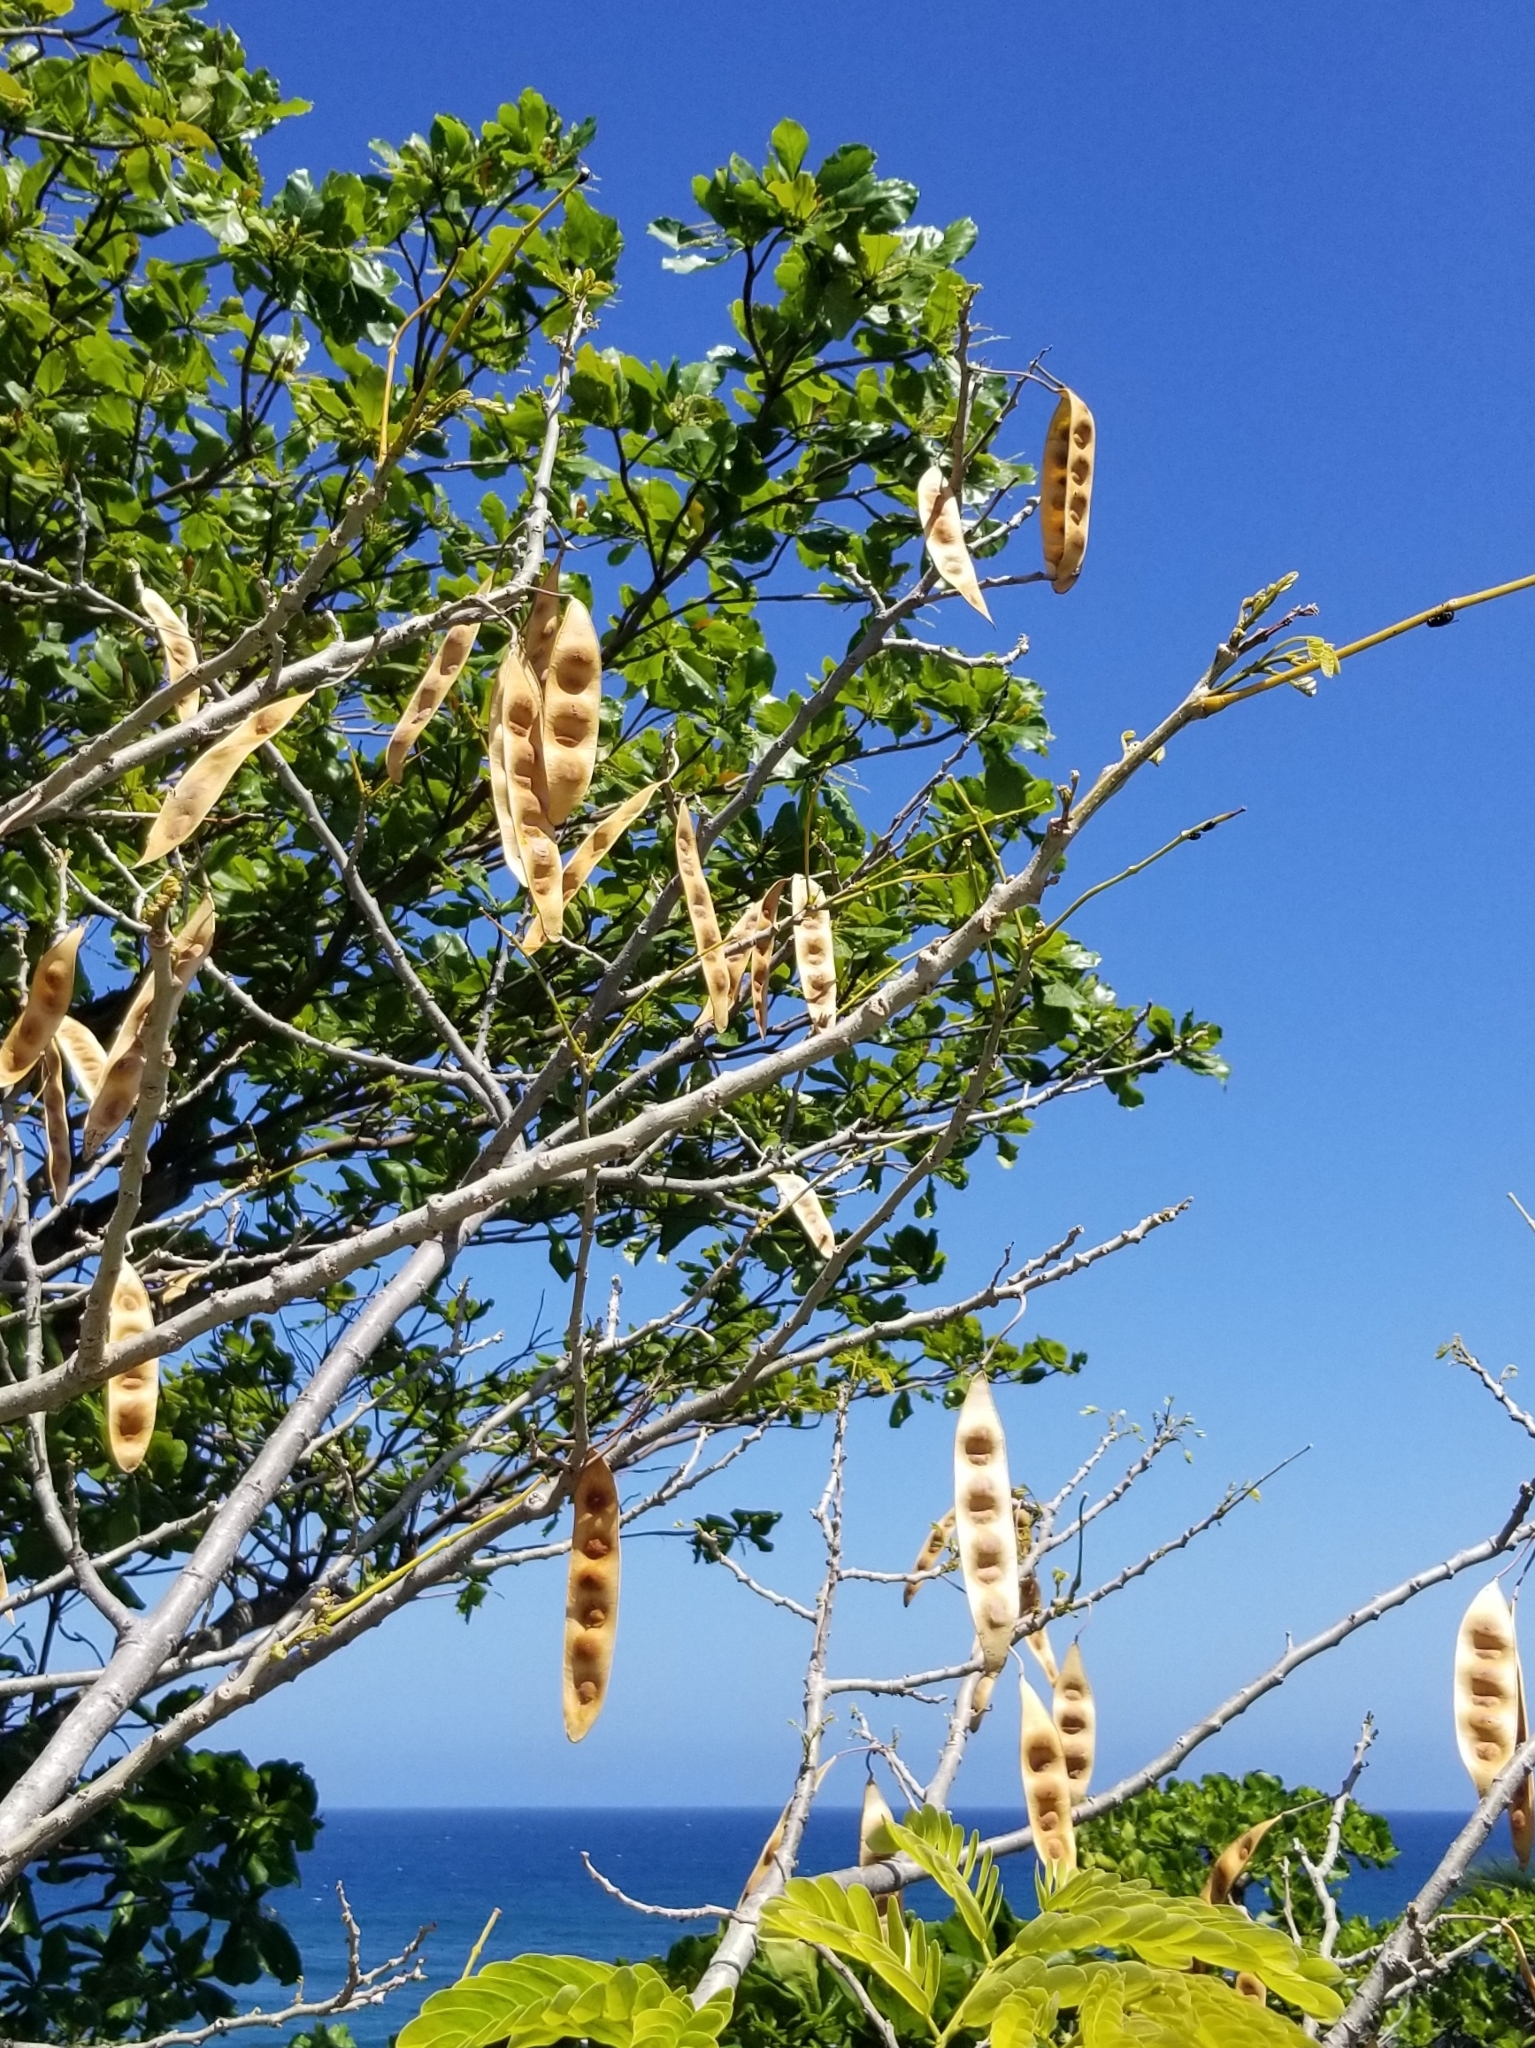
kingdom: Plantae
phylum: Tracheophyta
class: Magnoliopsida
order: Fabales
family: Fabaceae
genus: Albizia
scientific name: Albizia lebbeck
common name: Woman's tongue
